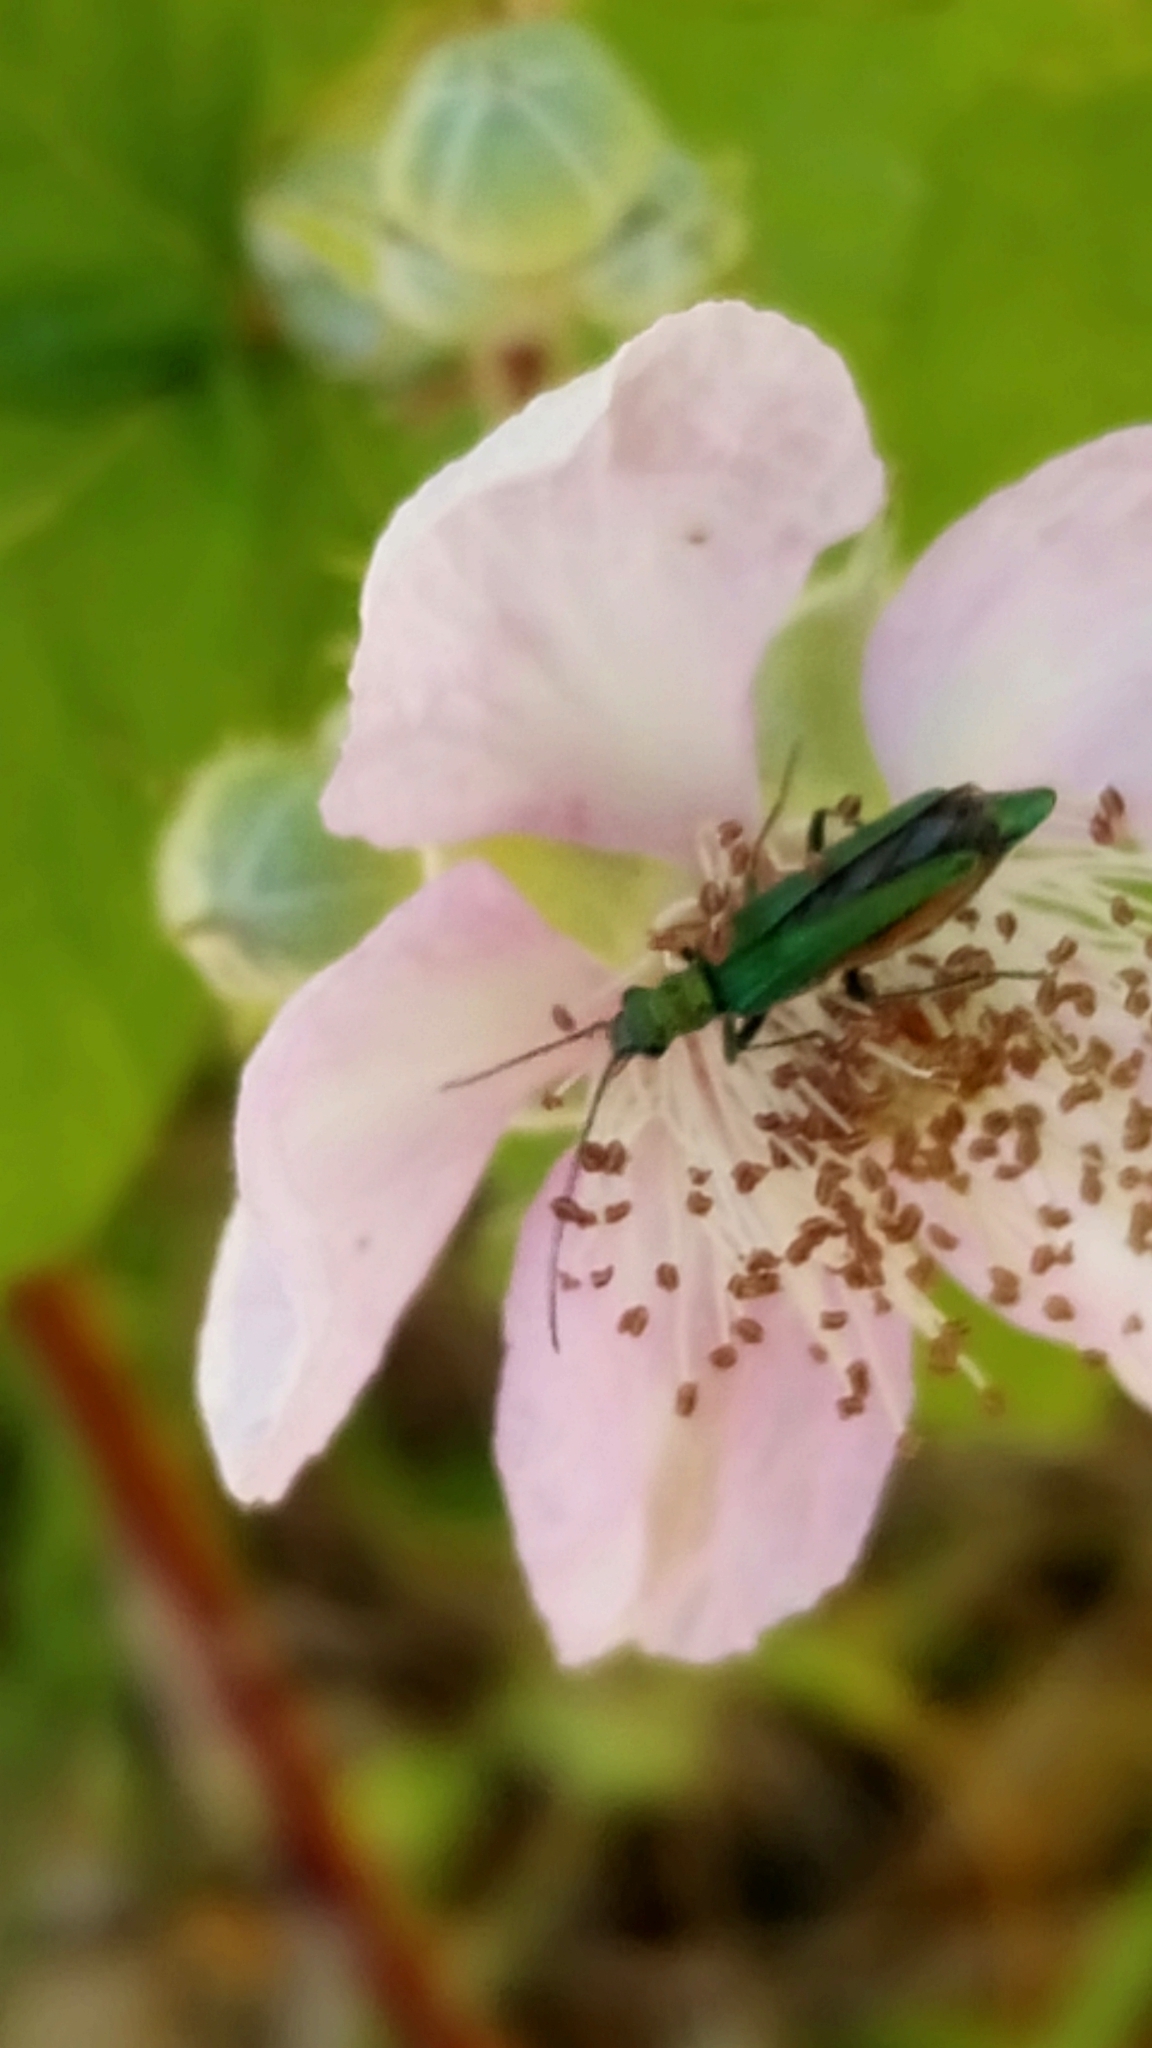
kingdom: Animalia
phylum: Arthropoda
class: Insecta
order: Coleoptera
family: Oedemeridae
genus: Oedemera
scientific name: Oedemera nobilis
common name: Swollen-thighed beetle
